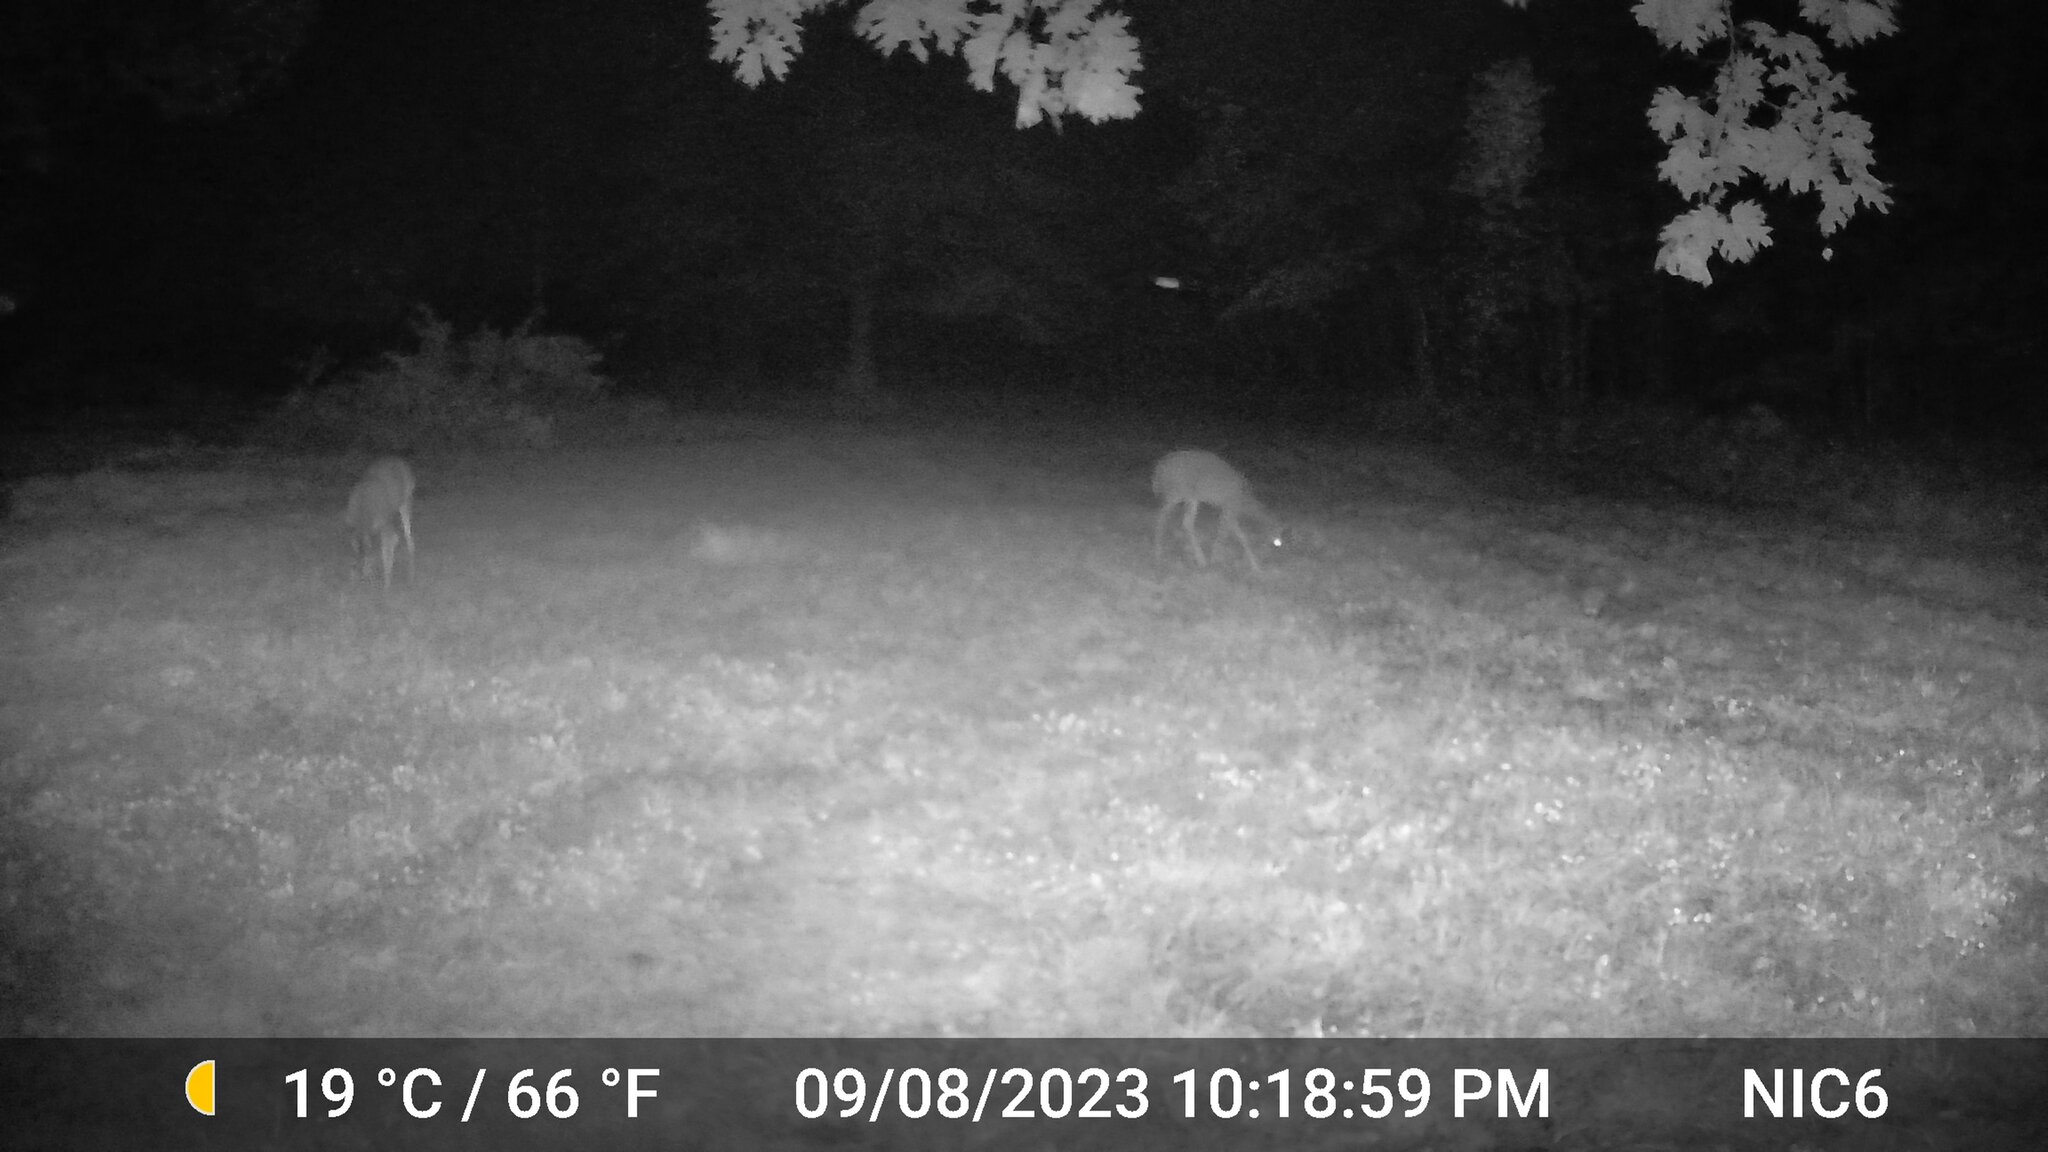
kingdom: Animalia
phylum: Chordata
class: Mammalia
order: Artiodactyla
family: Cervidae
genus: Odocoileus
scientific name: Odocoileus virginianus
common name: White-tailed deer
